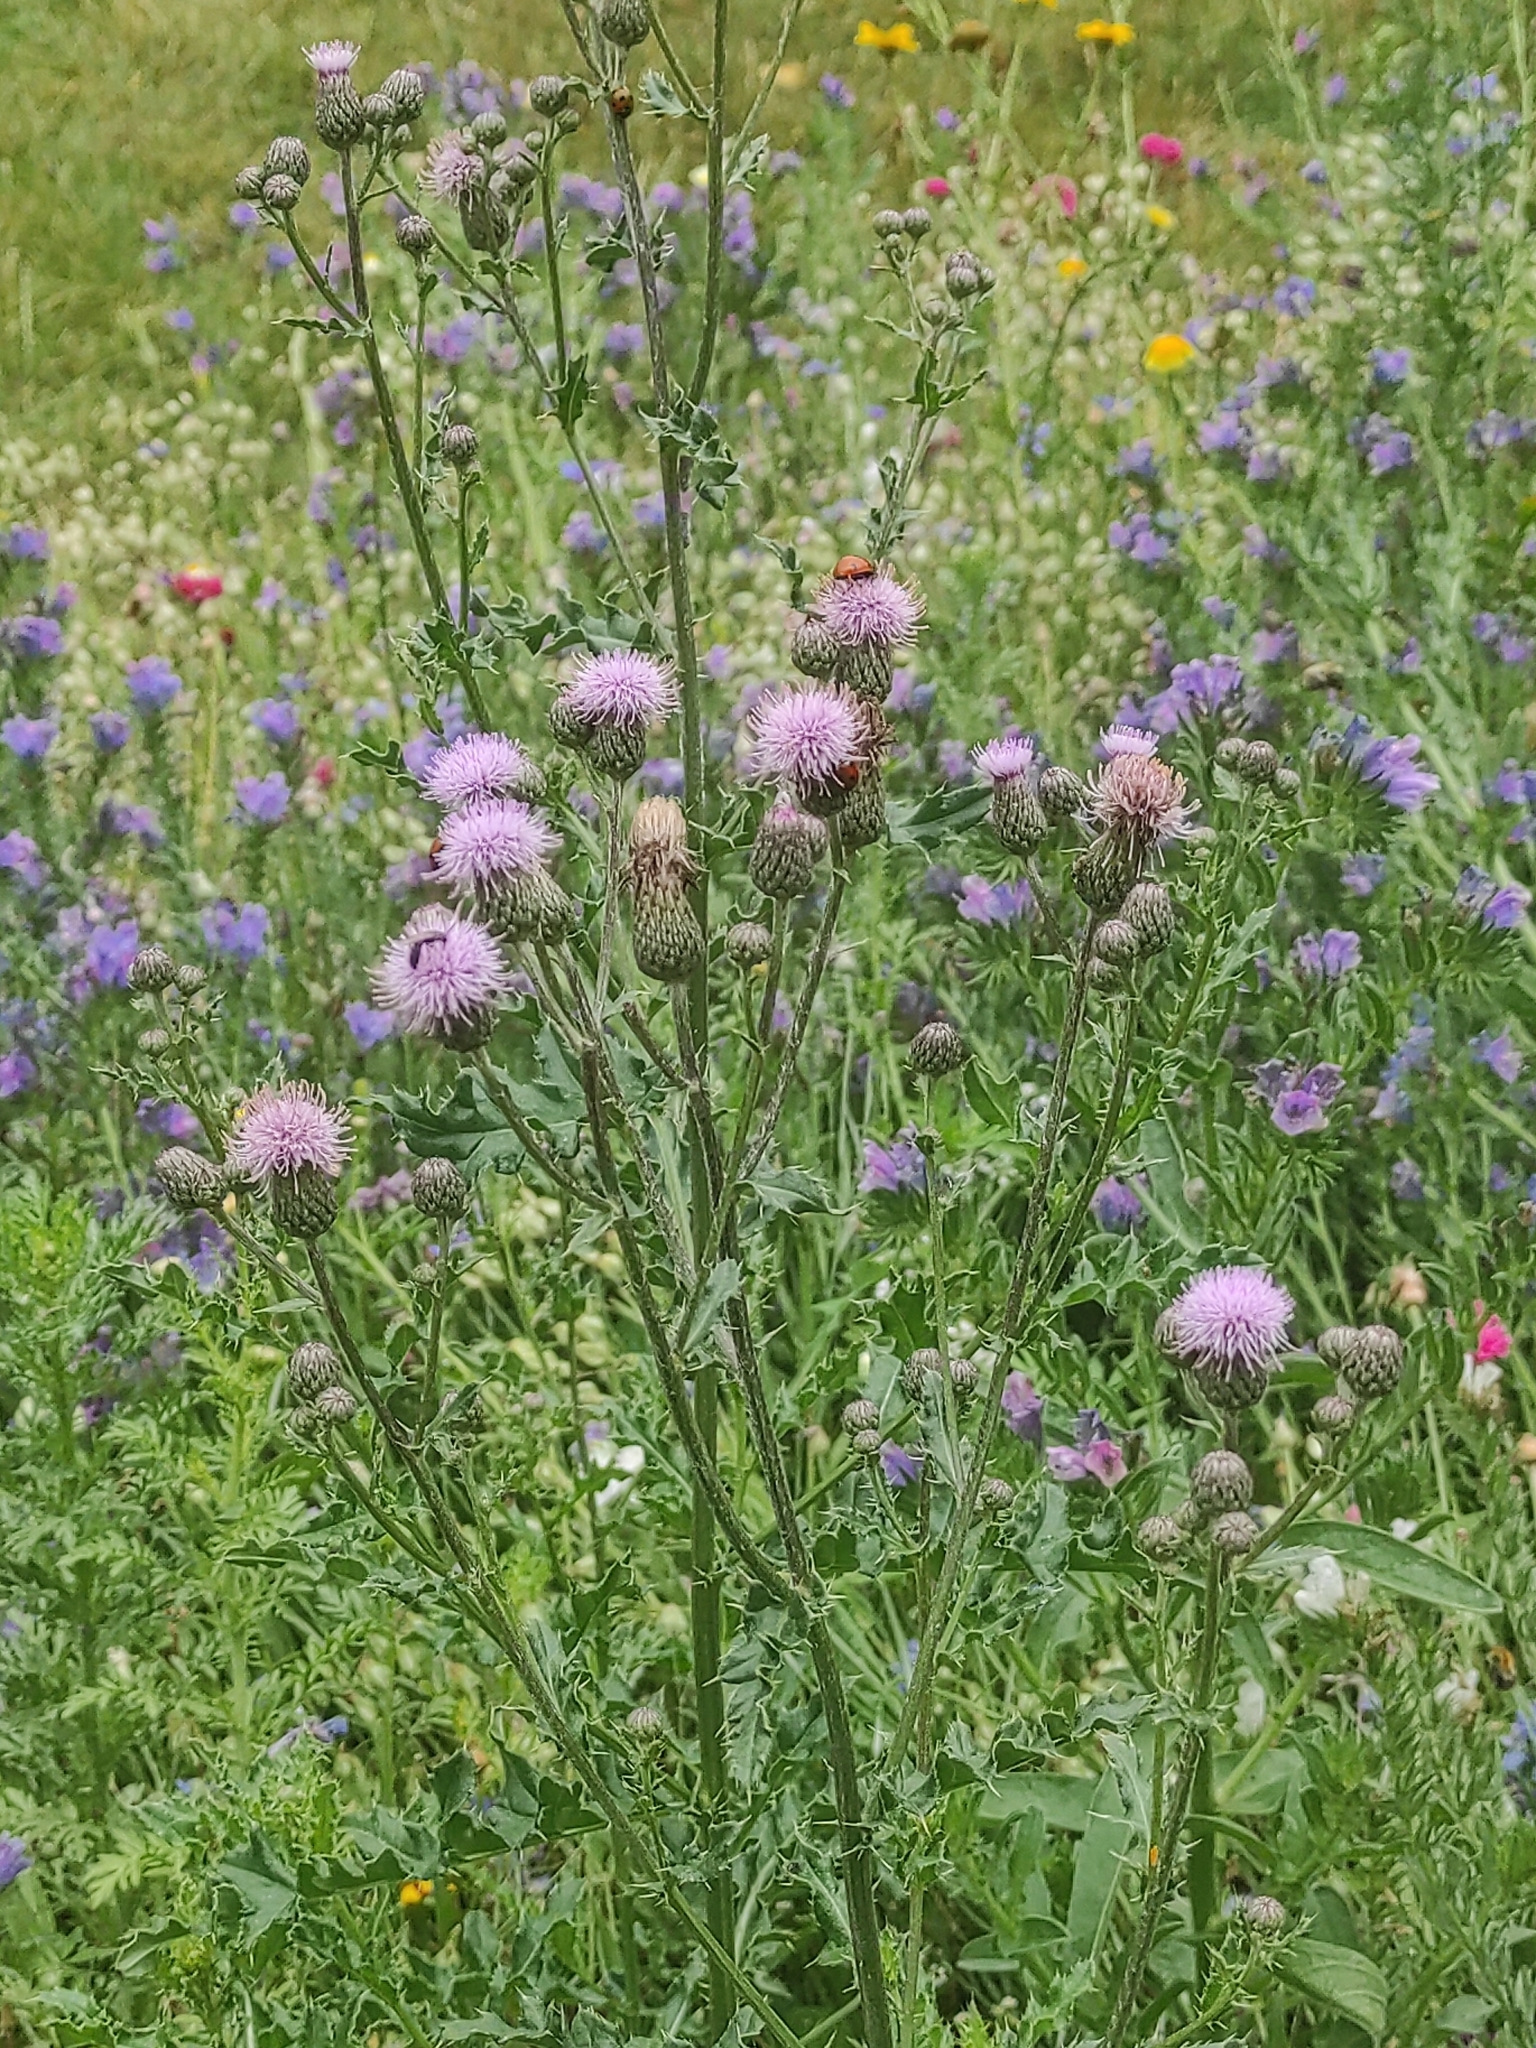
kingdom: Plantae
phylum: Tracheophyta
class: Magnoliopsida
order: Asterales
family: Asteraceae
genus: Cirsium
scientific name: Cirsium arvense
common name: Creeping thistle
